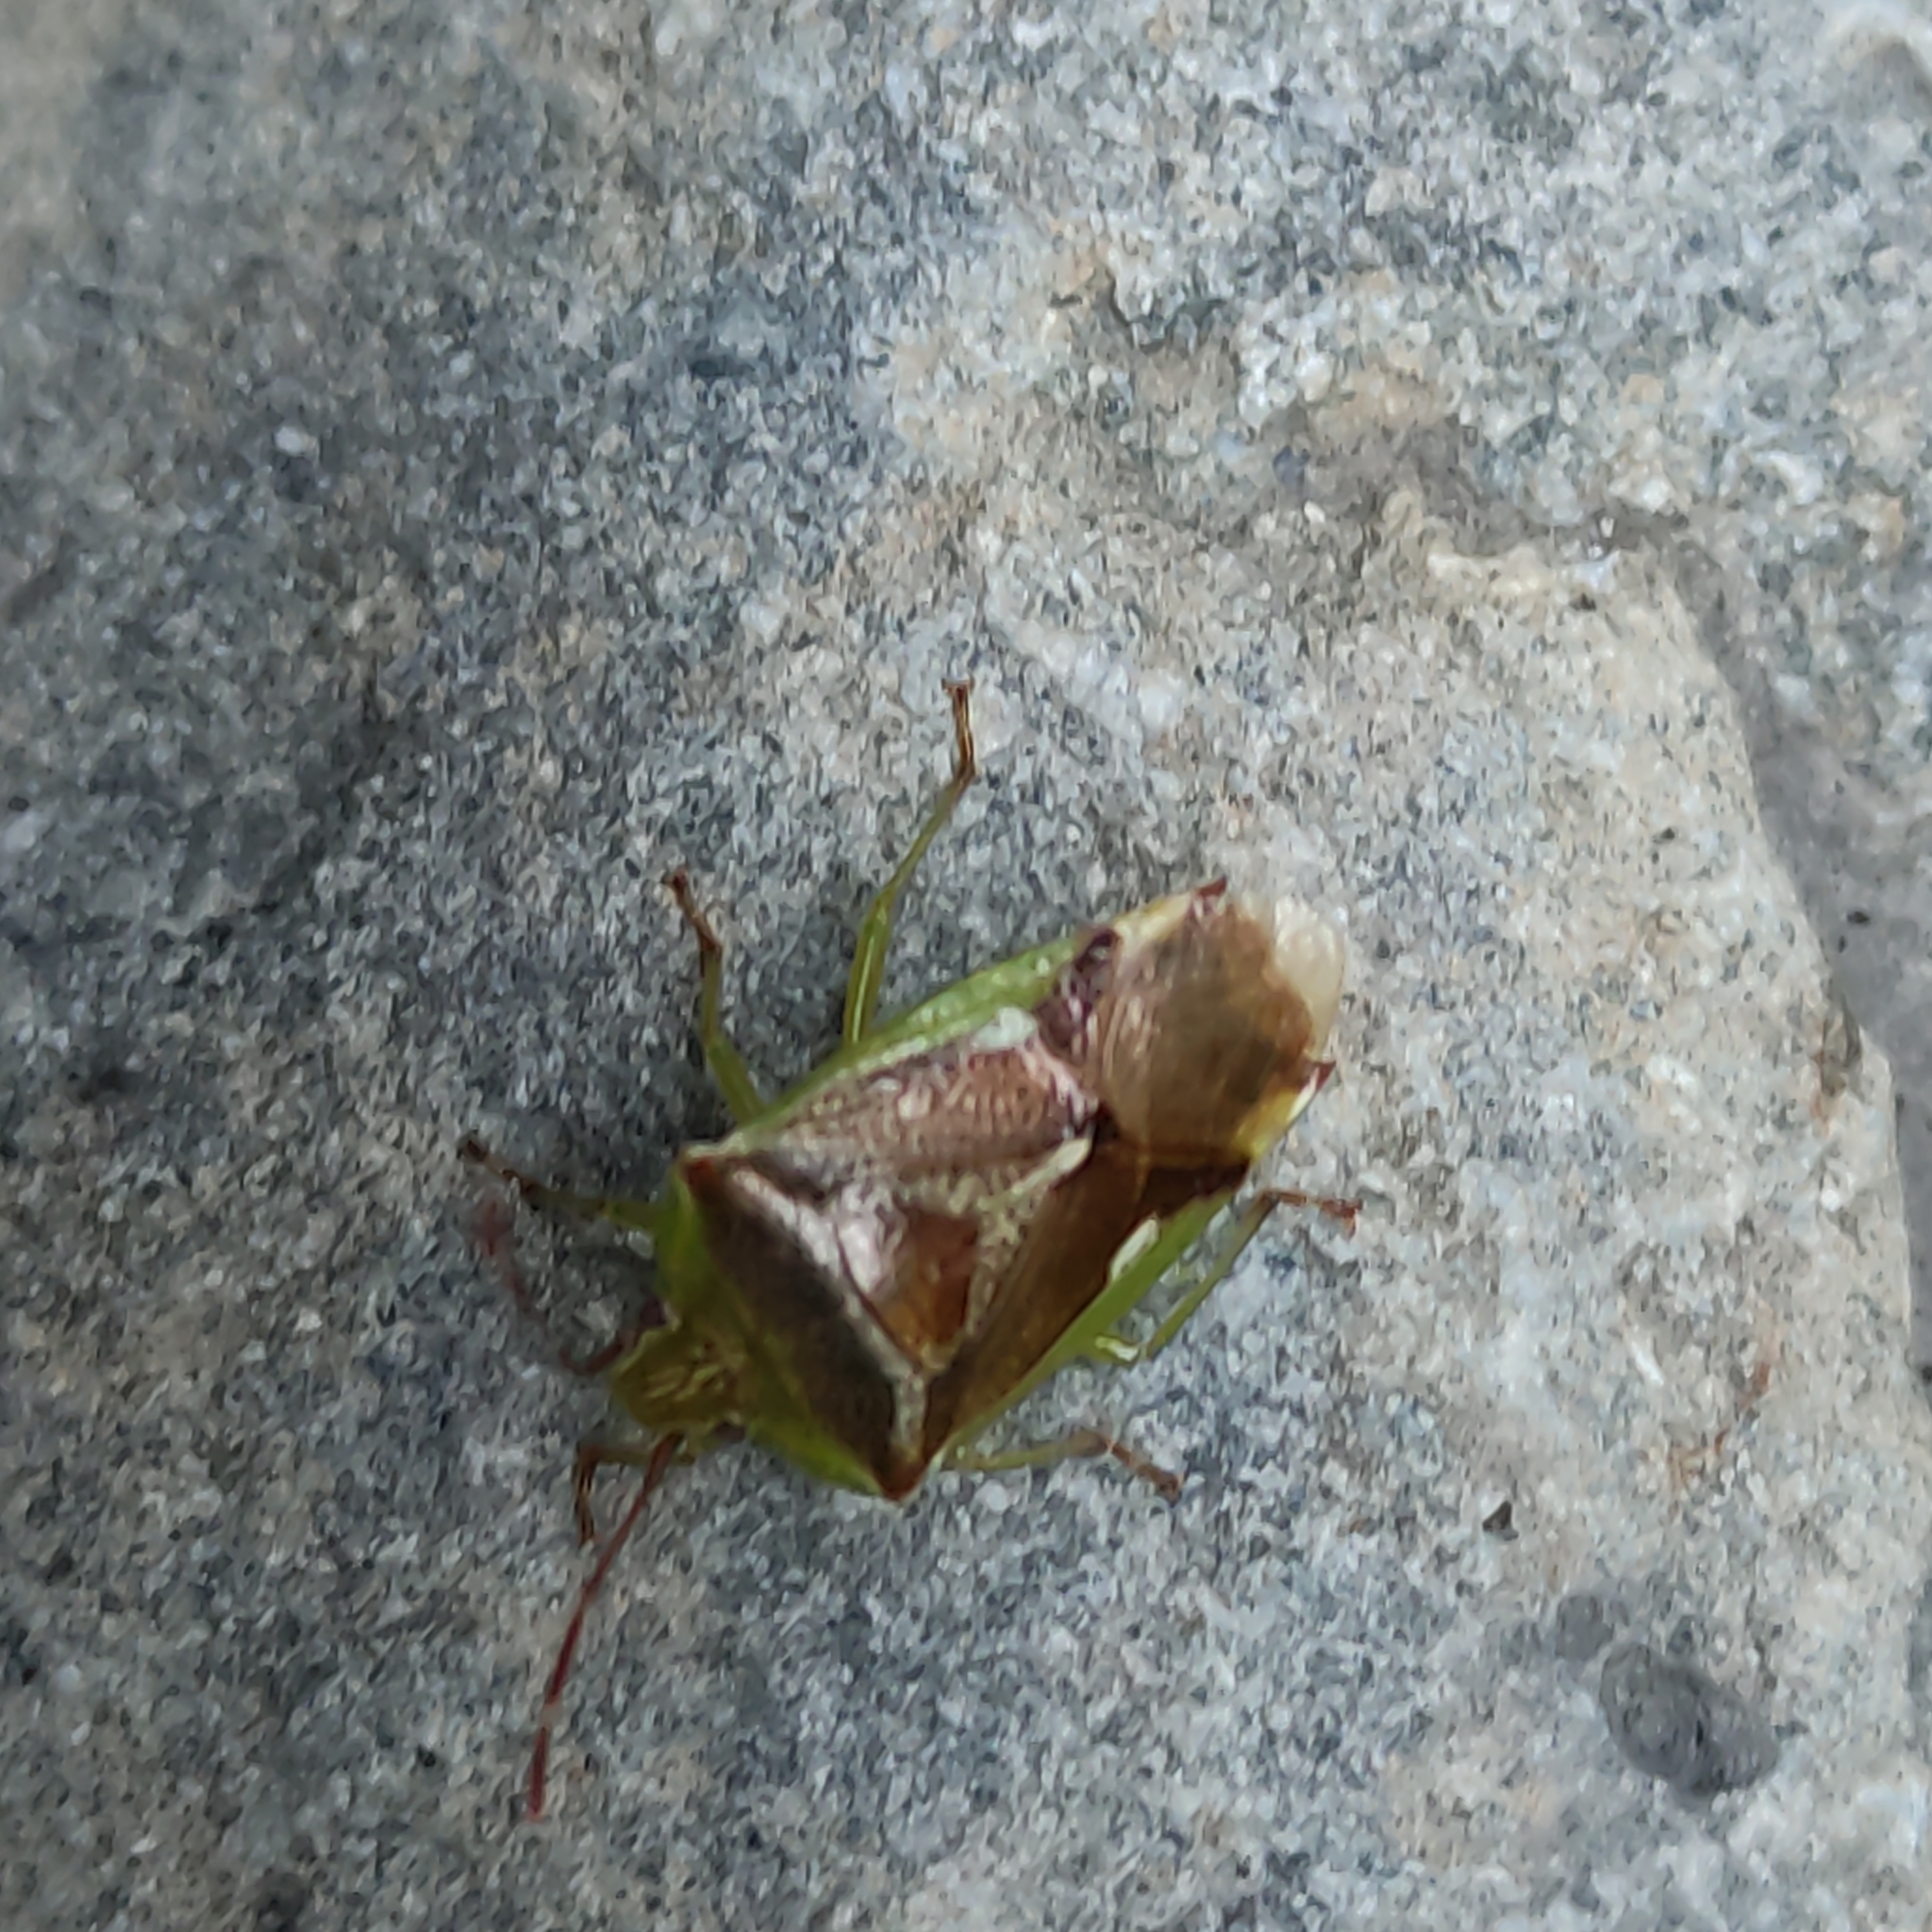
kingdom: Animalia
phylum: Arthropoda
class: Insecta
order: Hemiptera
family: Acanthosomatidae
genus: Oncacontias
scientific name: Oncacontias vittatus
